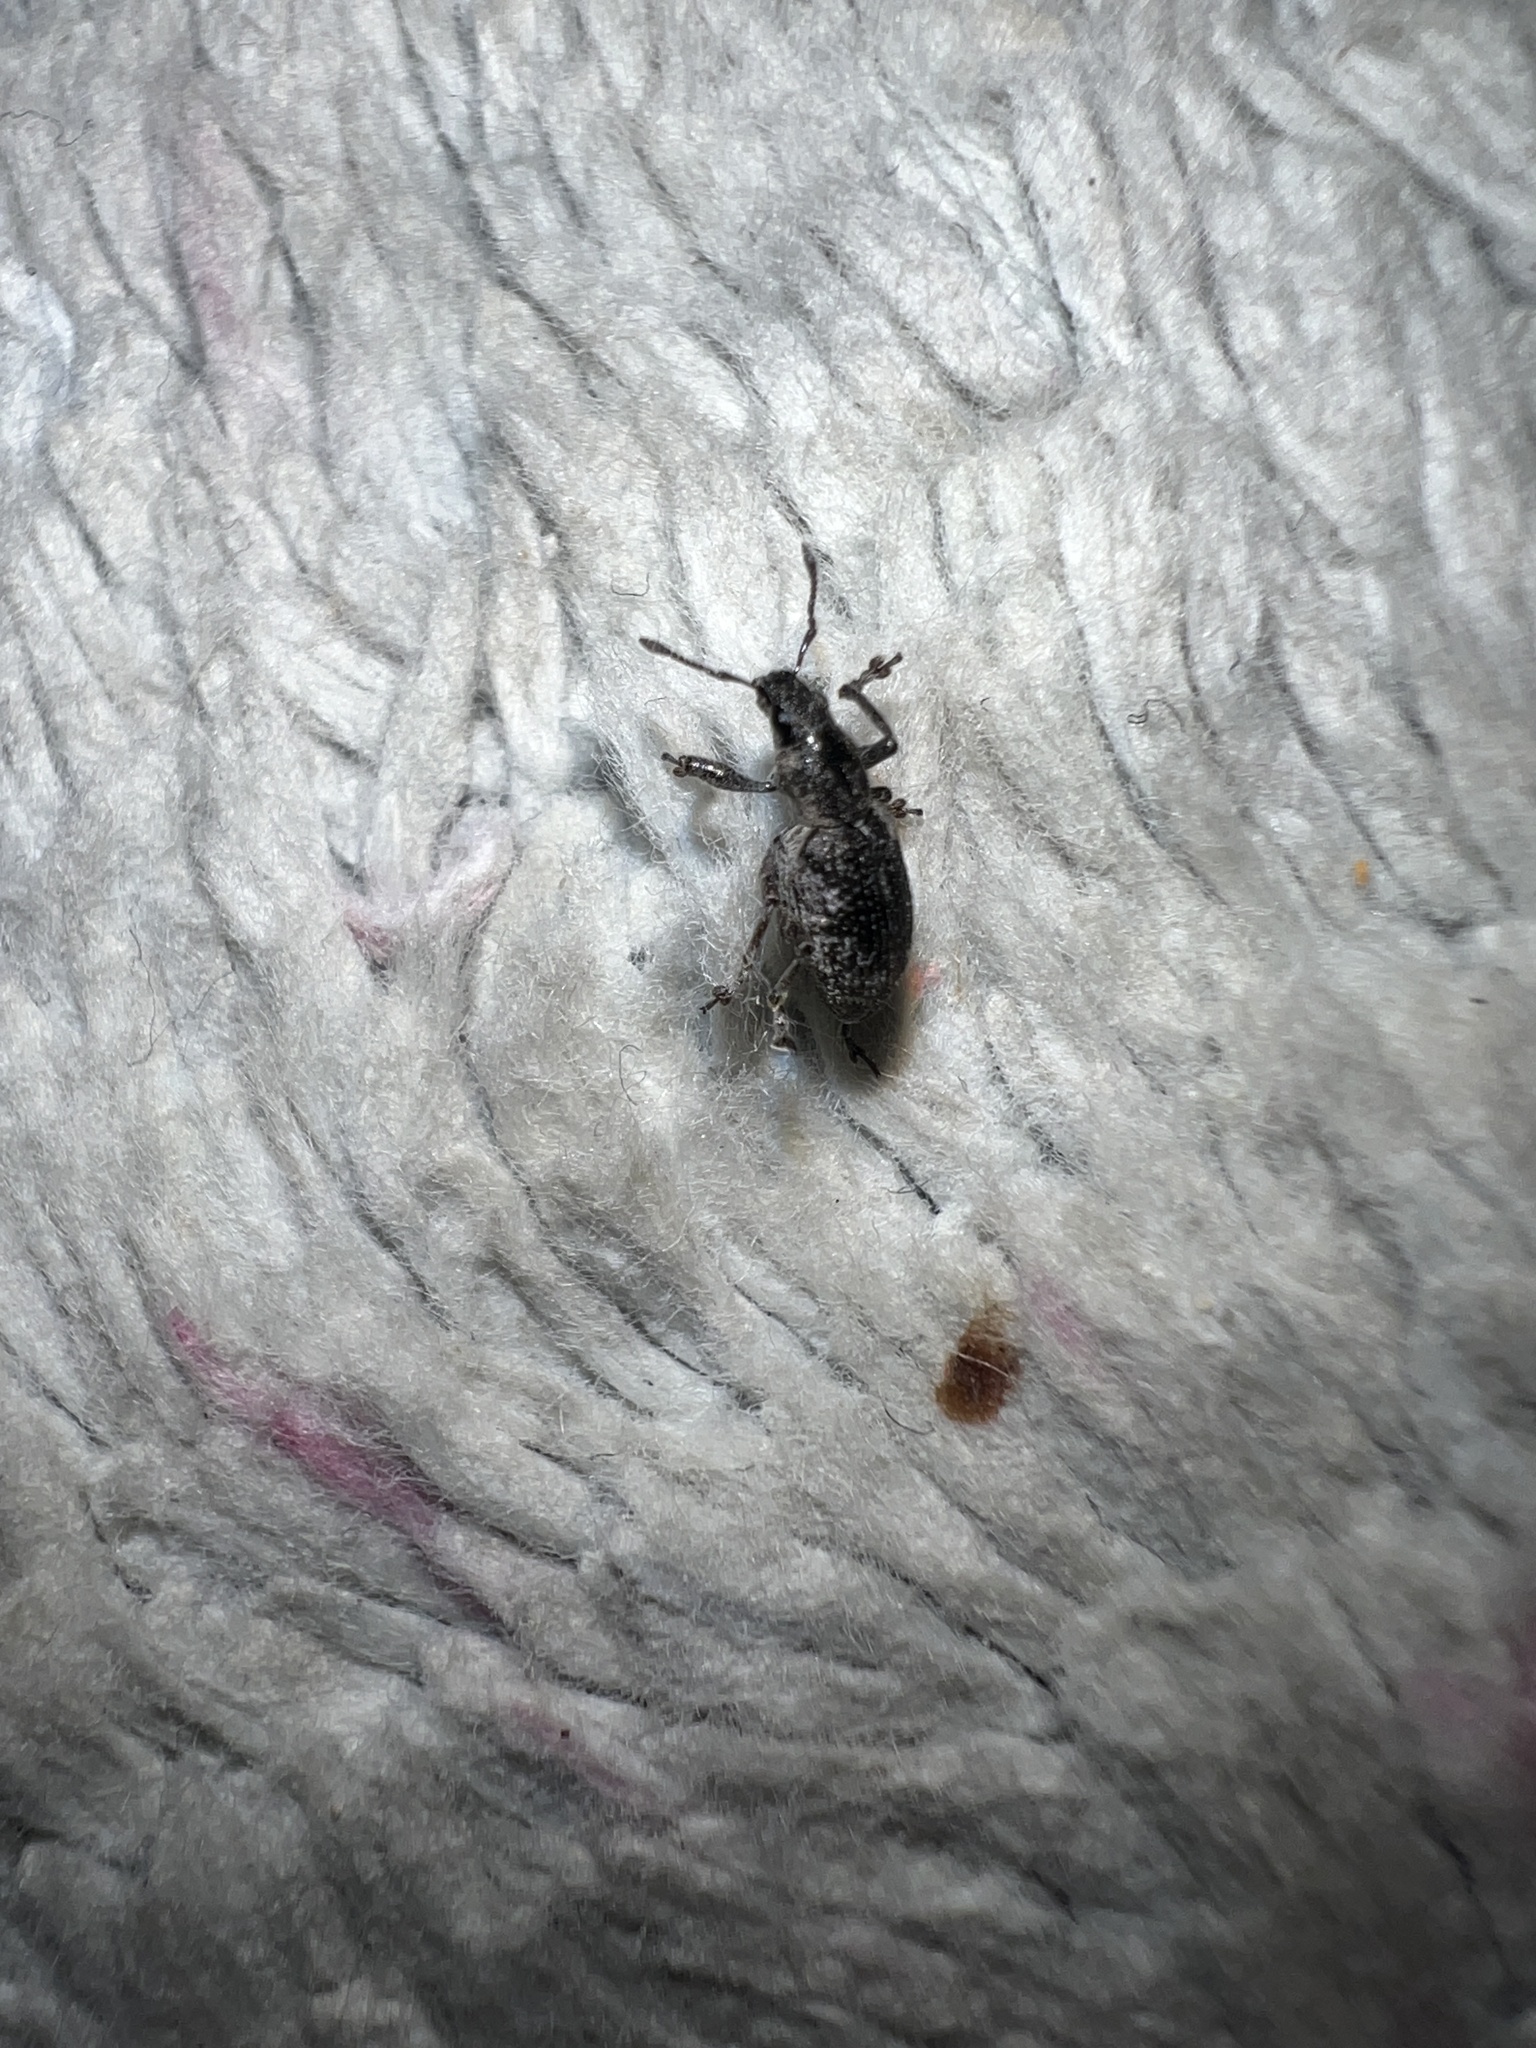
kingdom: Animalia
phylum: Arthropoda
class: Insecta
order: Coleoptera
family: Curculionidae
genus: Tanymecus
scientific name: Tanymecus confusus
